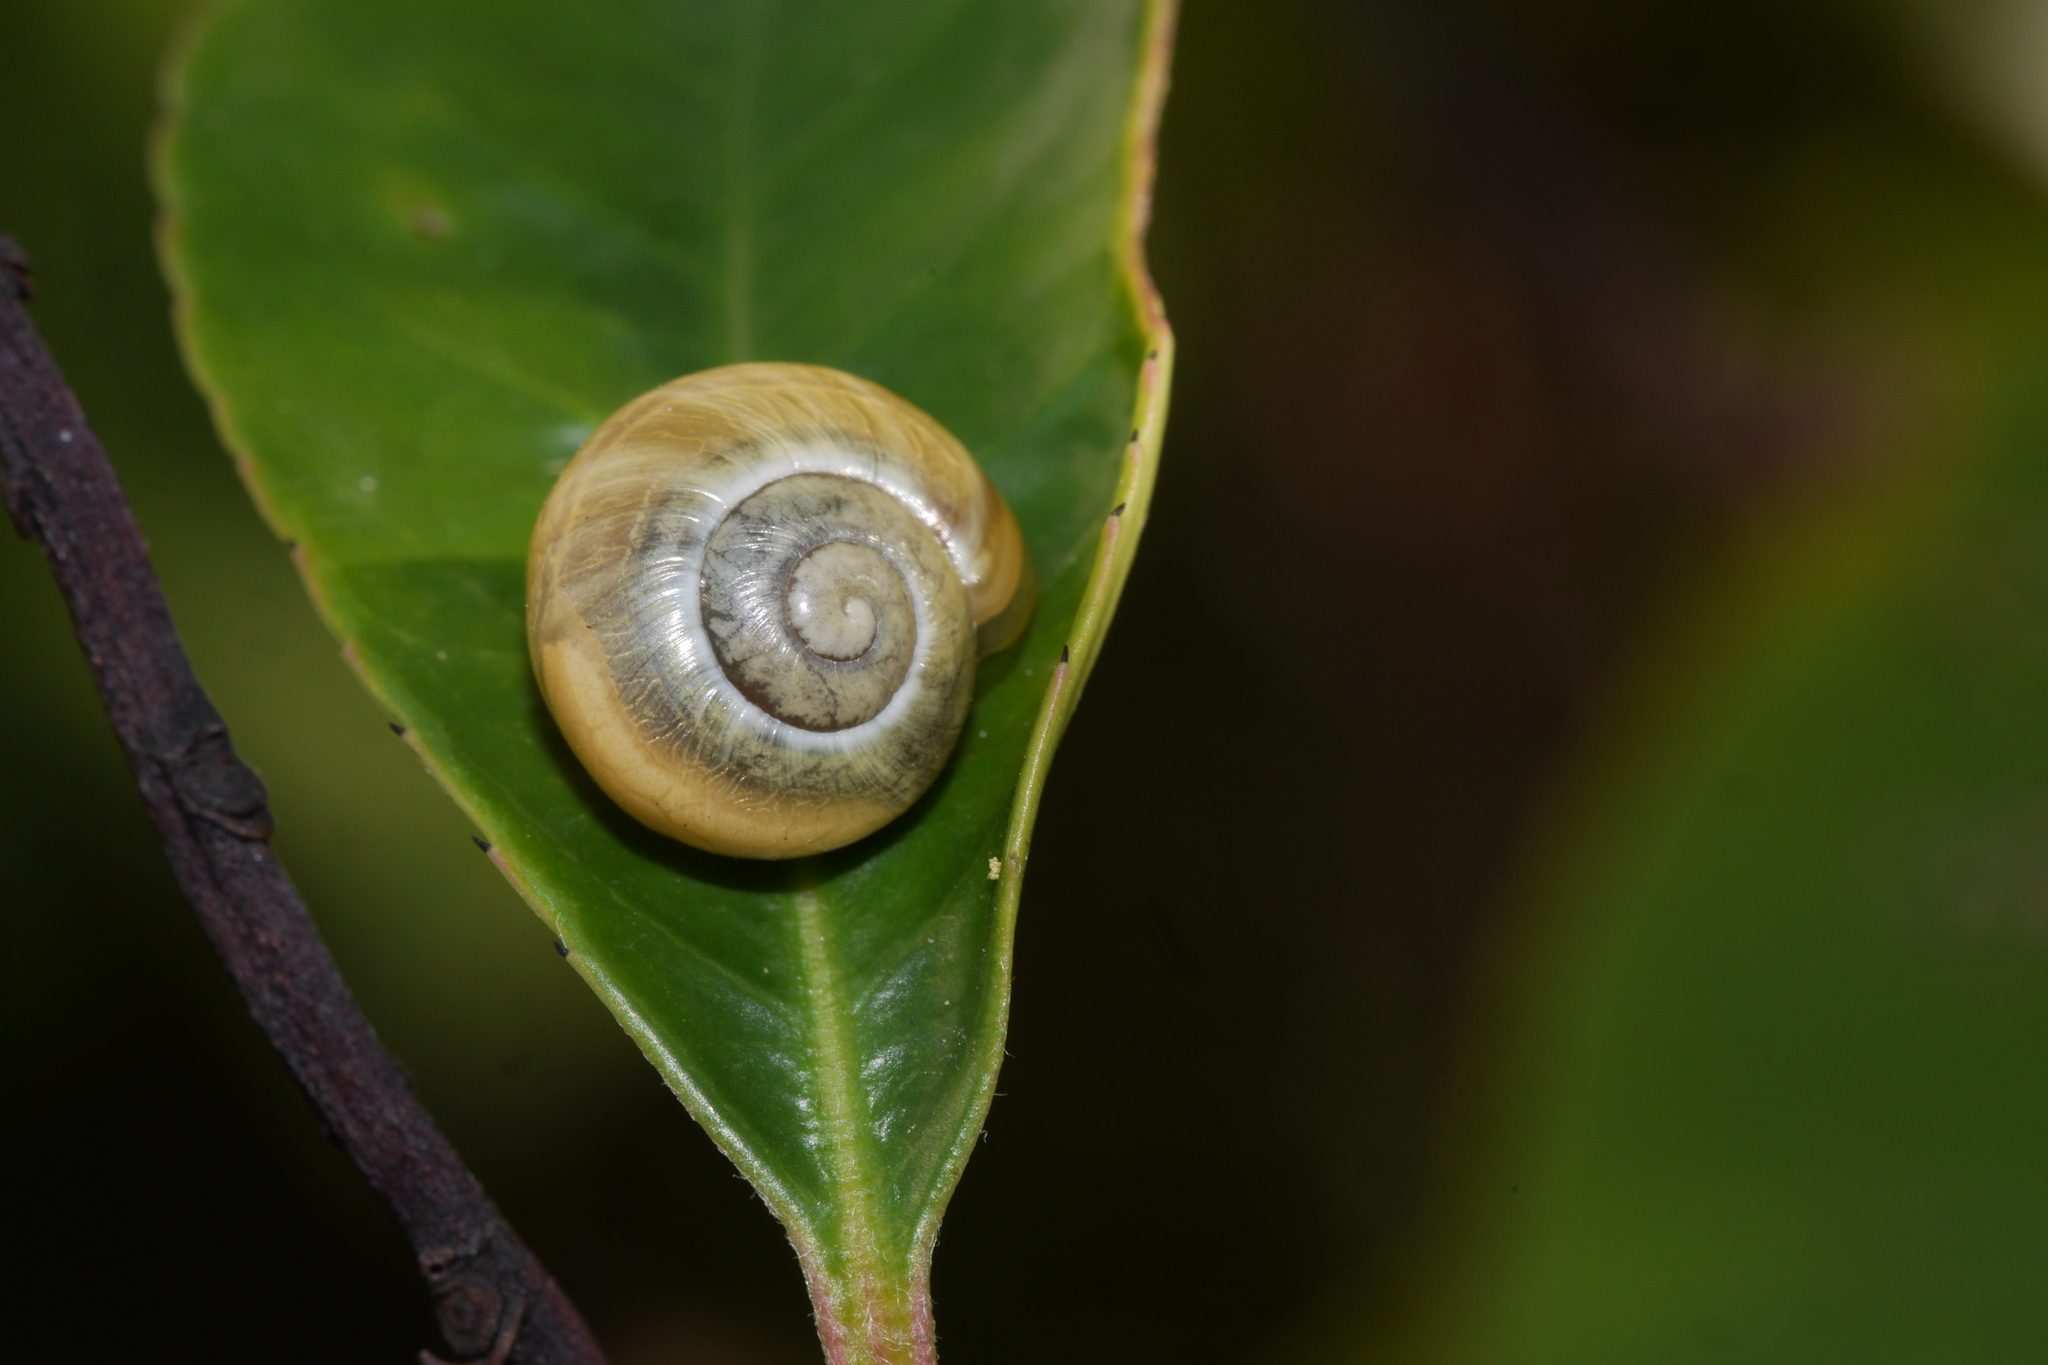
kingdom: Animalia
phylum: Mollusca
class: Gastropoda
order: Stylommatophora
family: Helicidae
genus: Cepaea
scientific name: Cepaea
